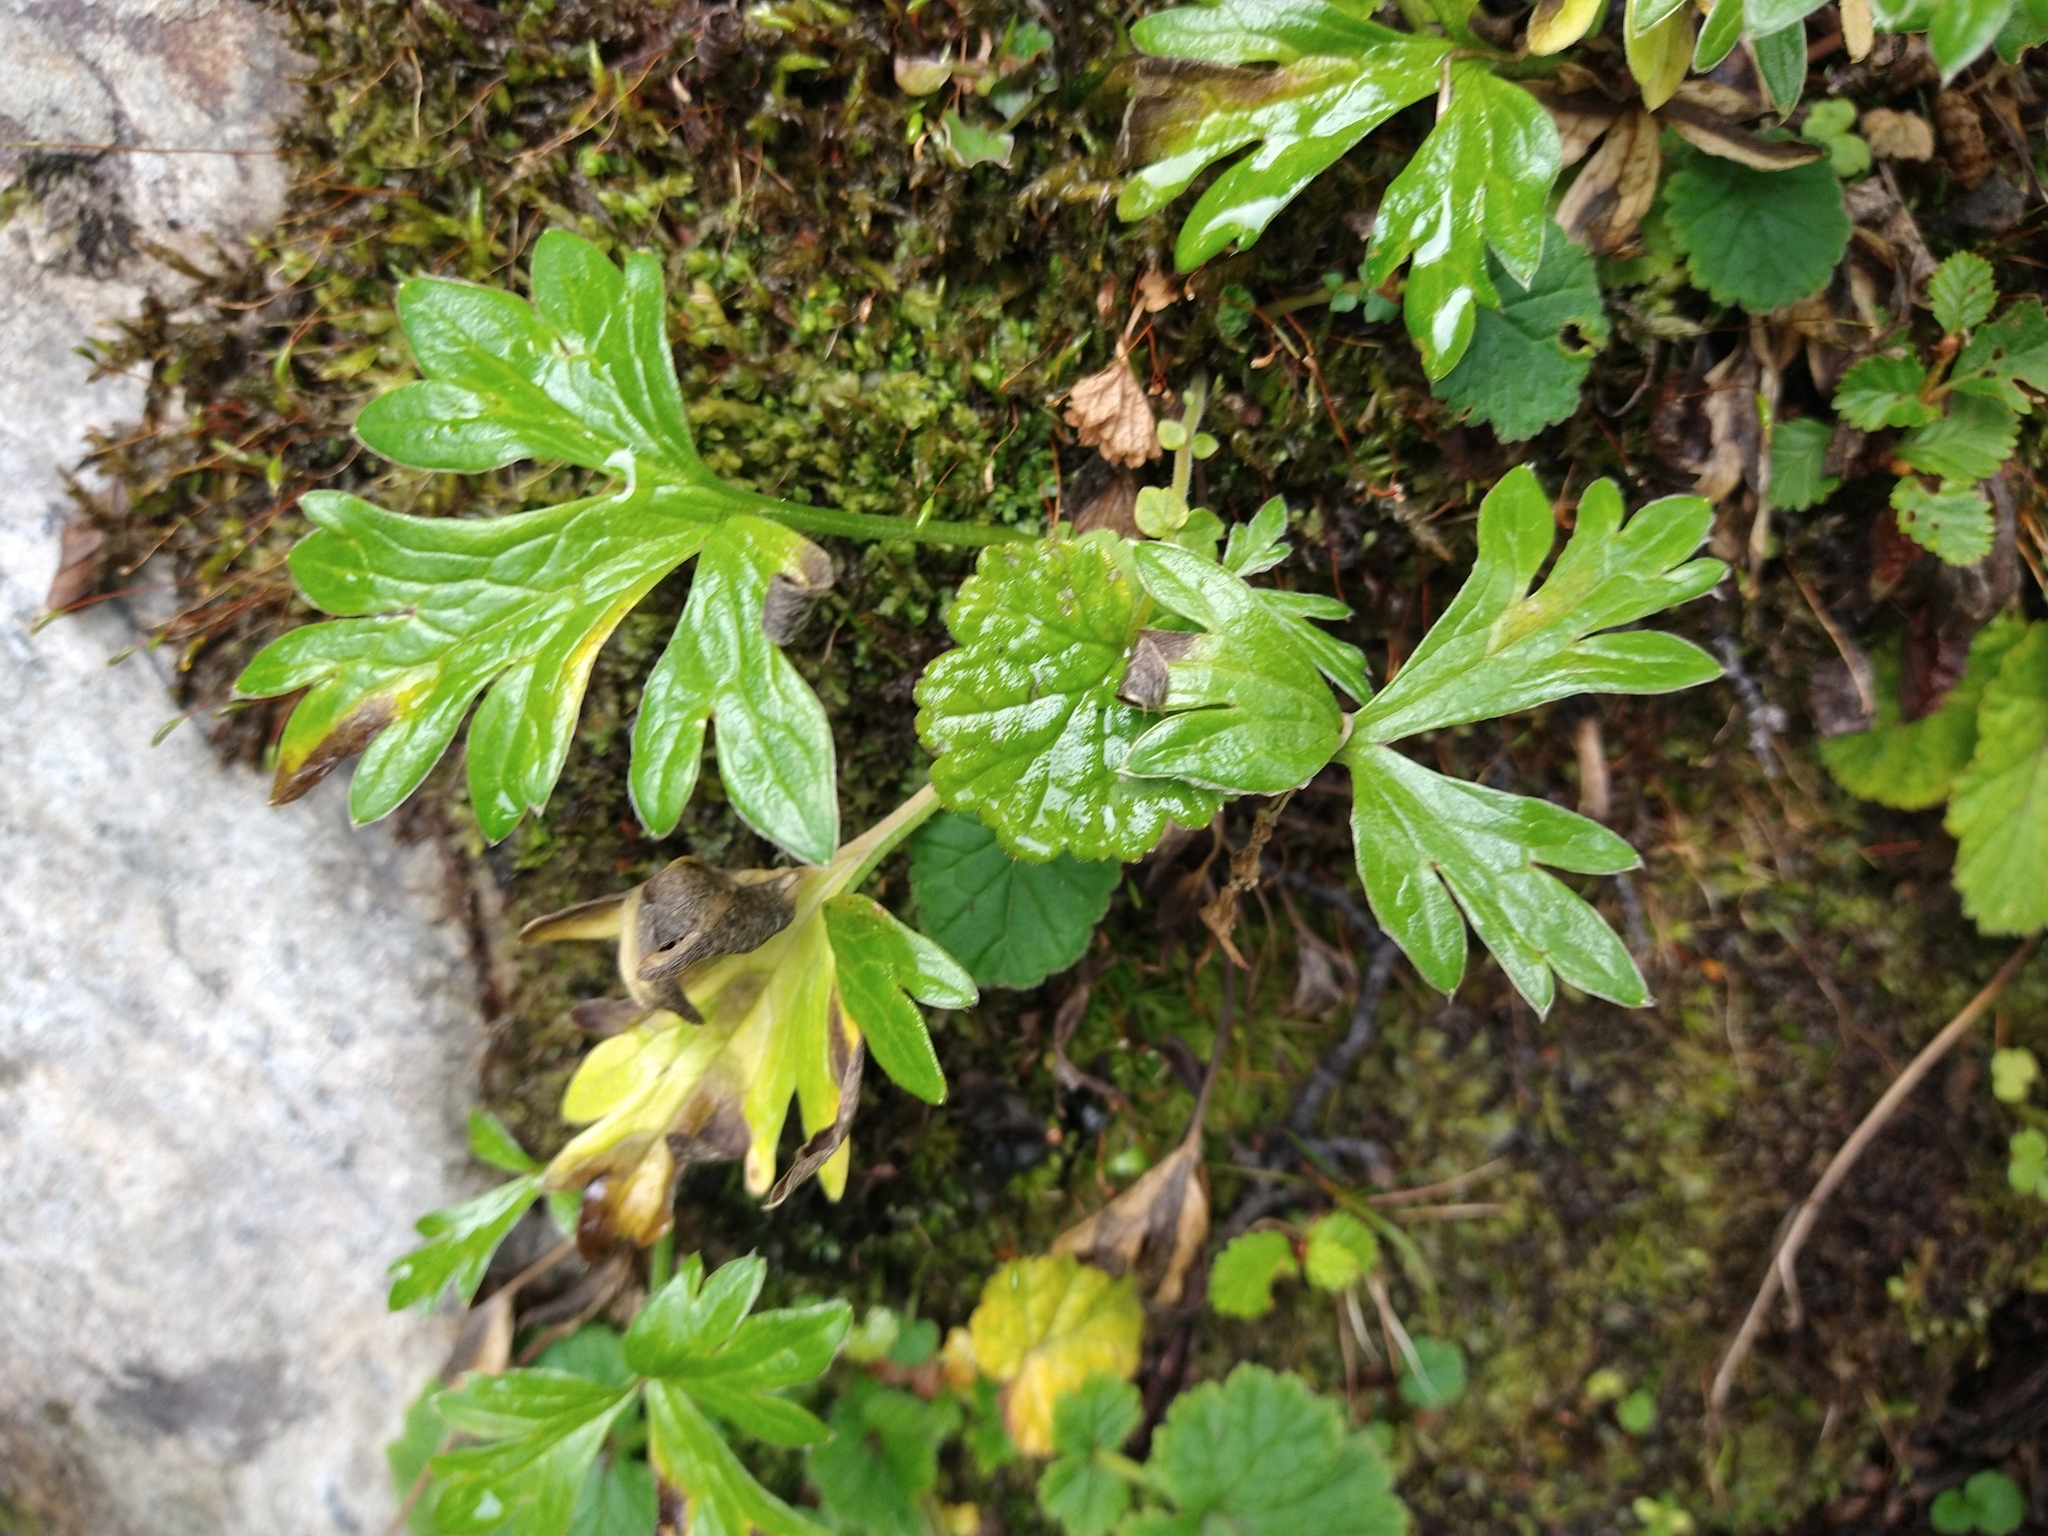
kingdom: Plantae
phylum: Tracheophyta
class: Magnoliopsida
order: Ranunculales
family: Ranunculaceae
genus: Hamadryas
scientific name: Hamadryas magellanica
